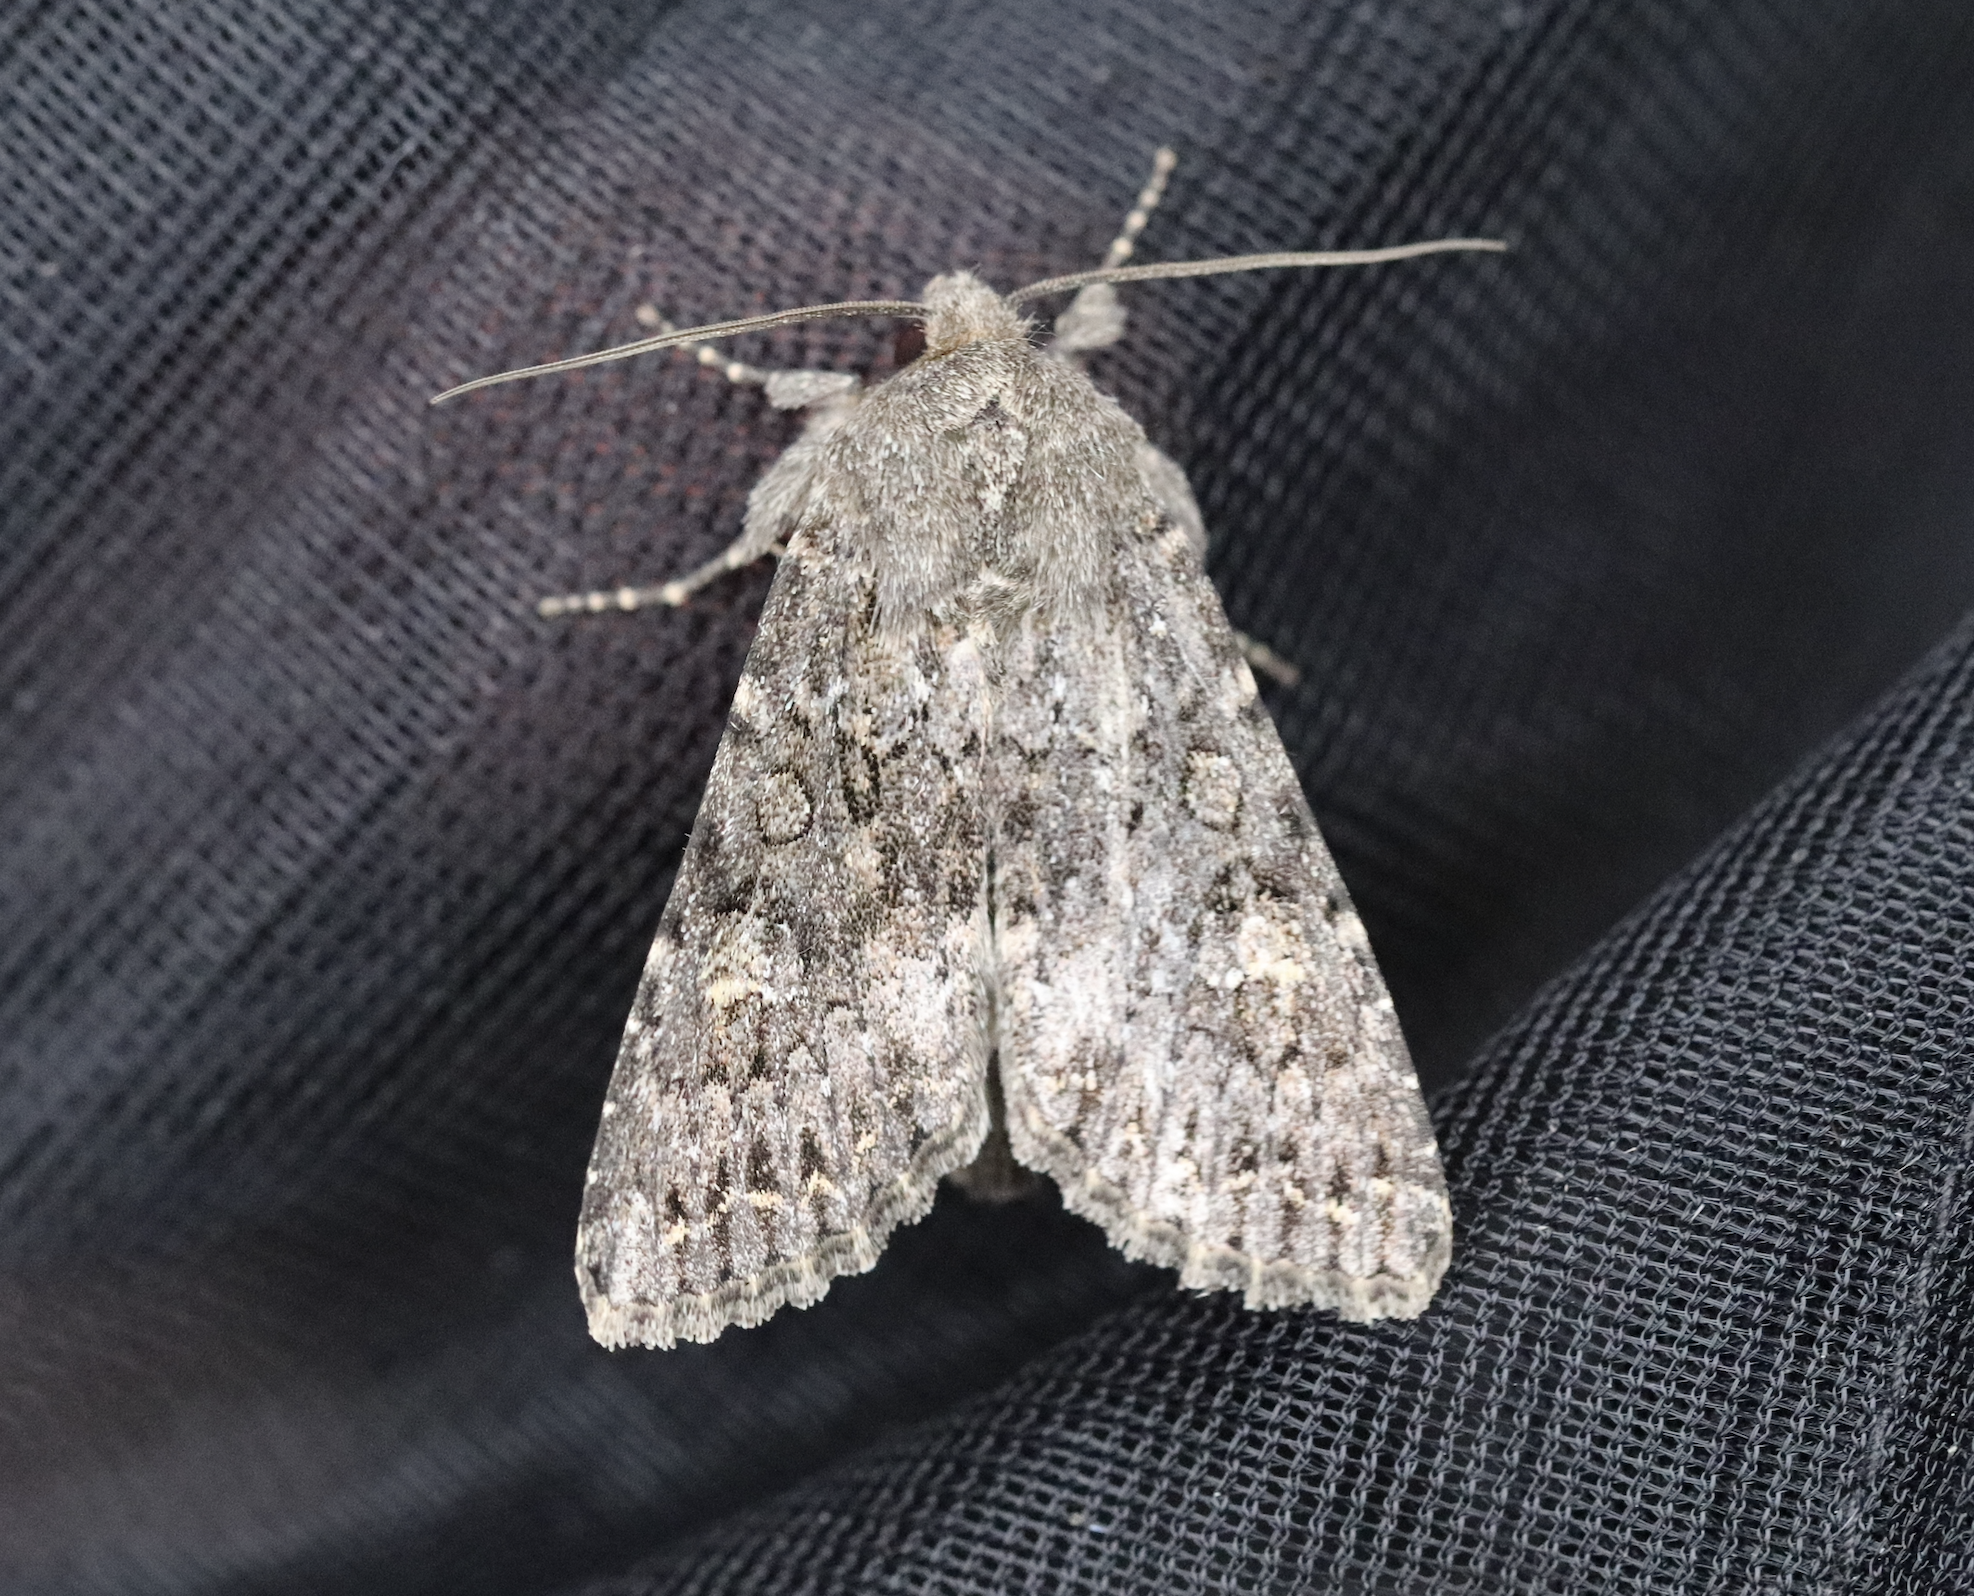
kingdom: Animalia
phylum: Arthropoda
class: Insecta
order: Lepidoptera
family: Noctuidae
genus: Apamea
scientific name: Apamea maillardi
